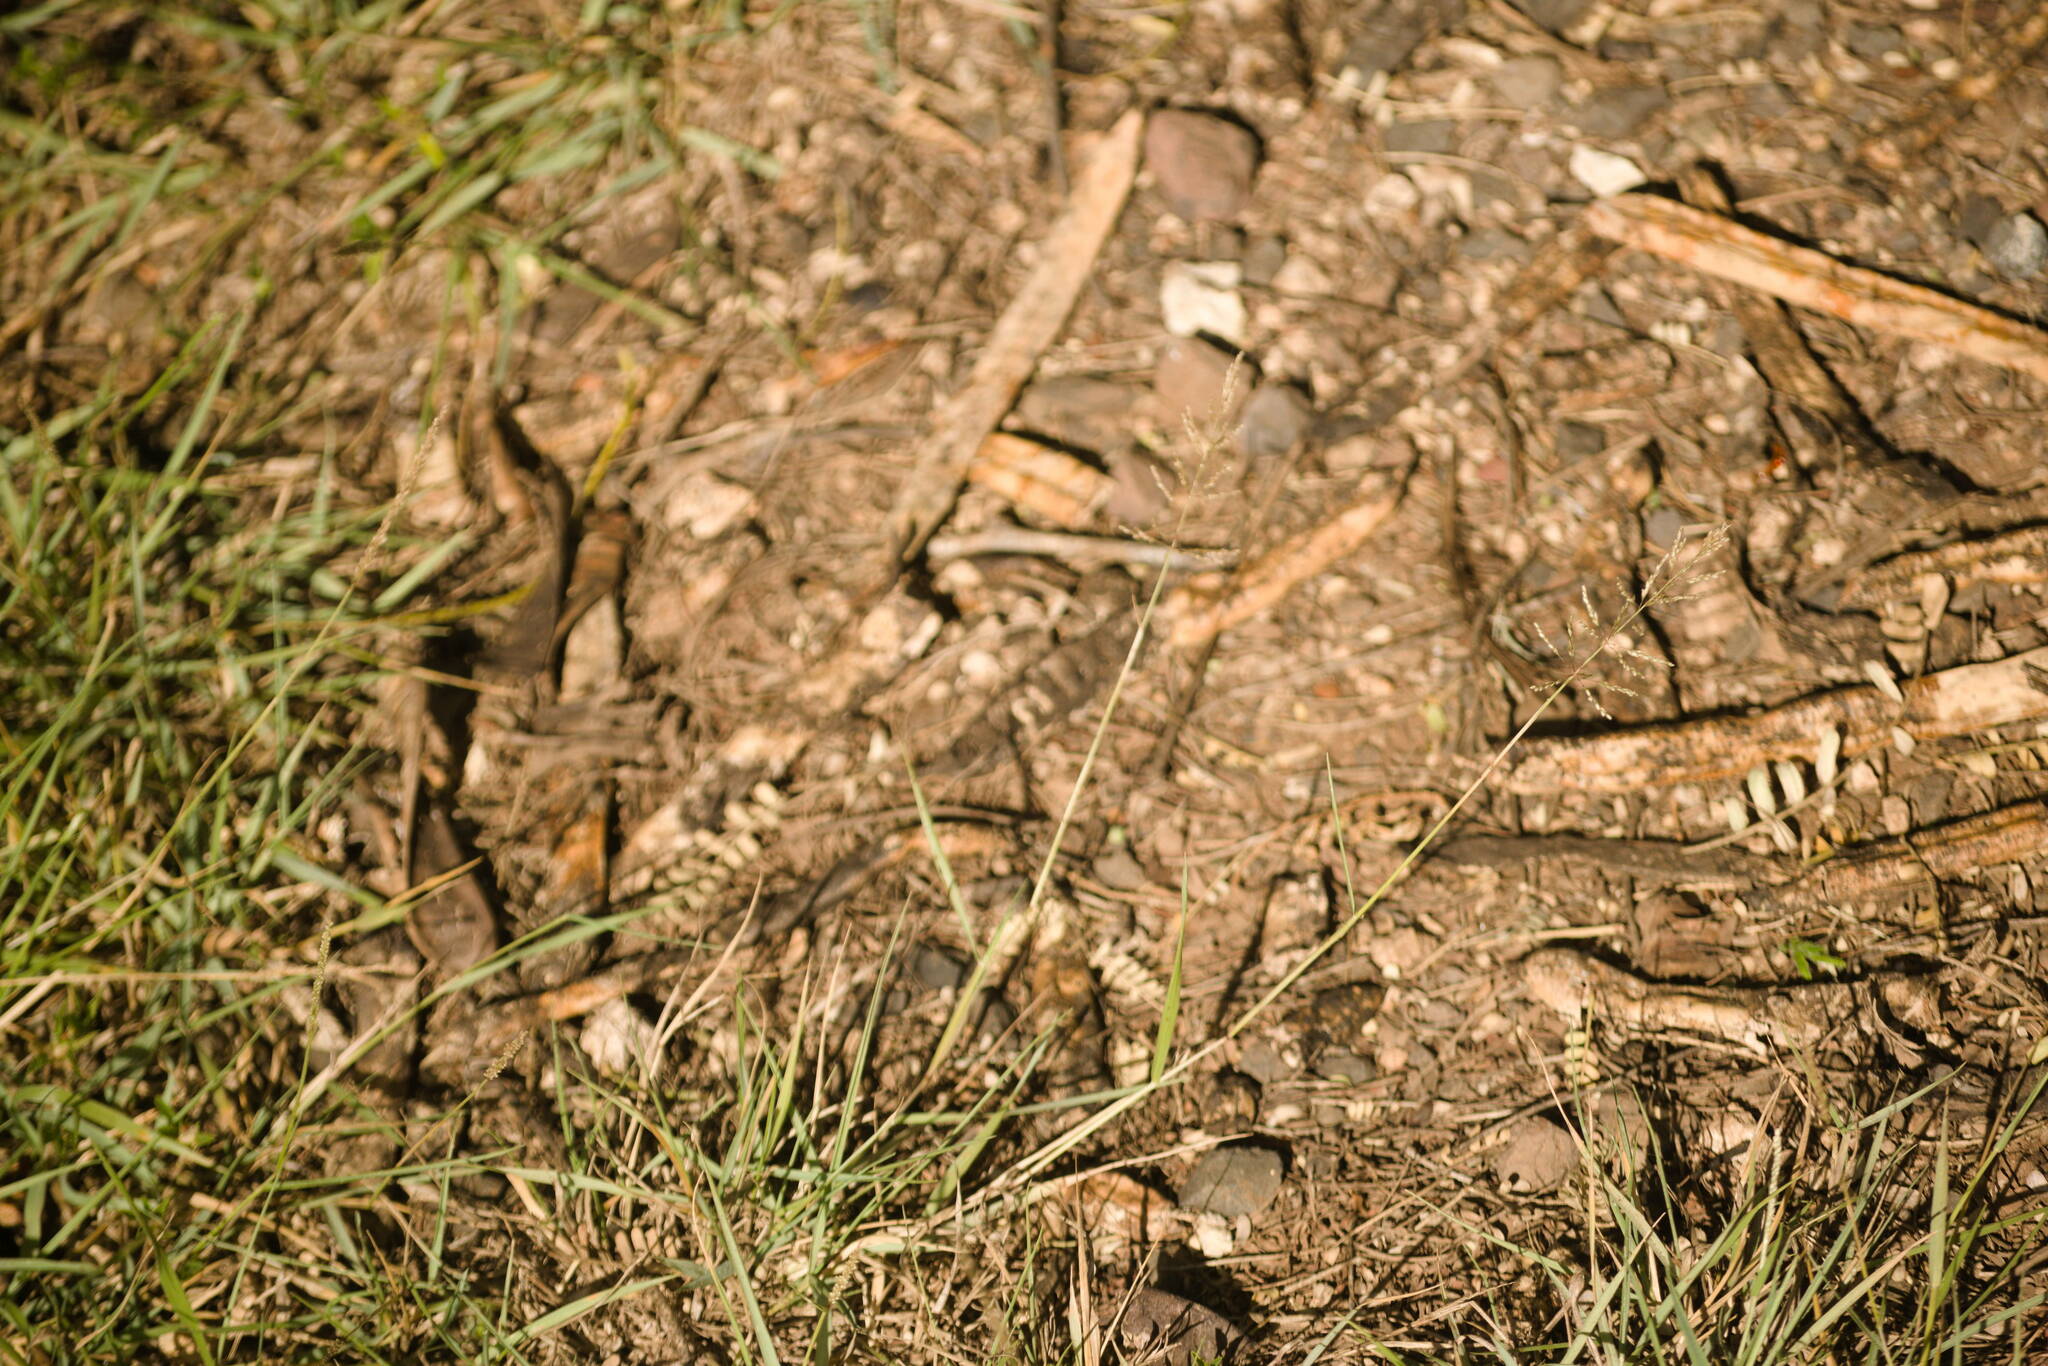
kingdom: Plantae
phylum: Tracheophyta
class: Liliopsida
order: Poales
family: Poaceae
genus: Sporobolus
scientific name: Sporobolus pyramidatus
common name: Whorled dropseed
